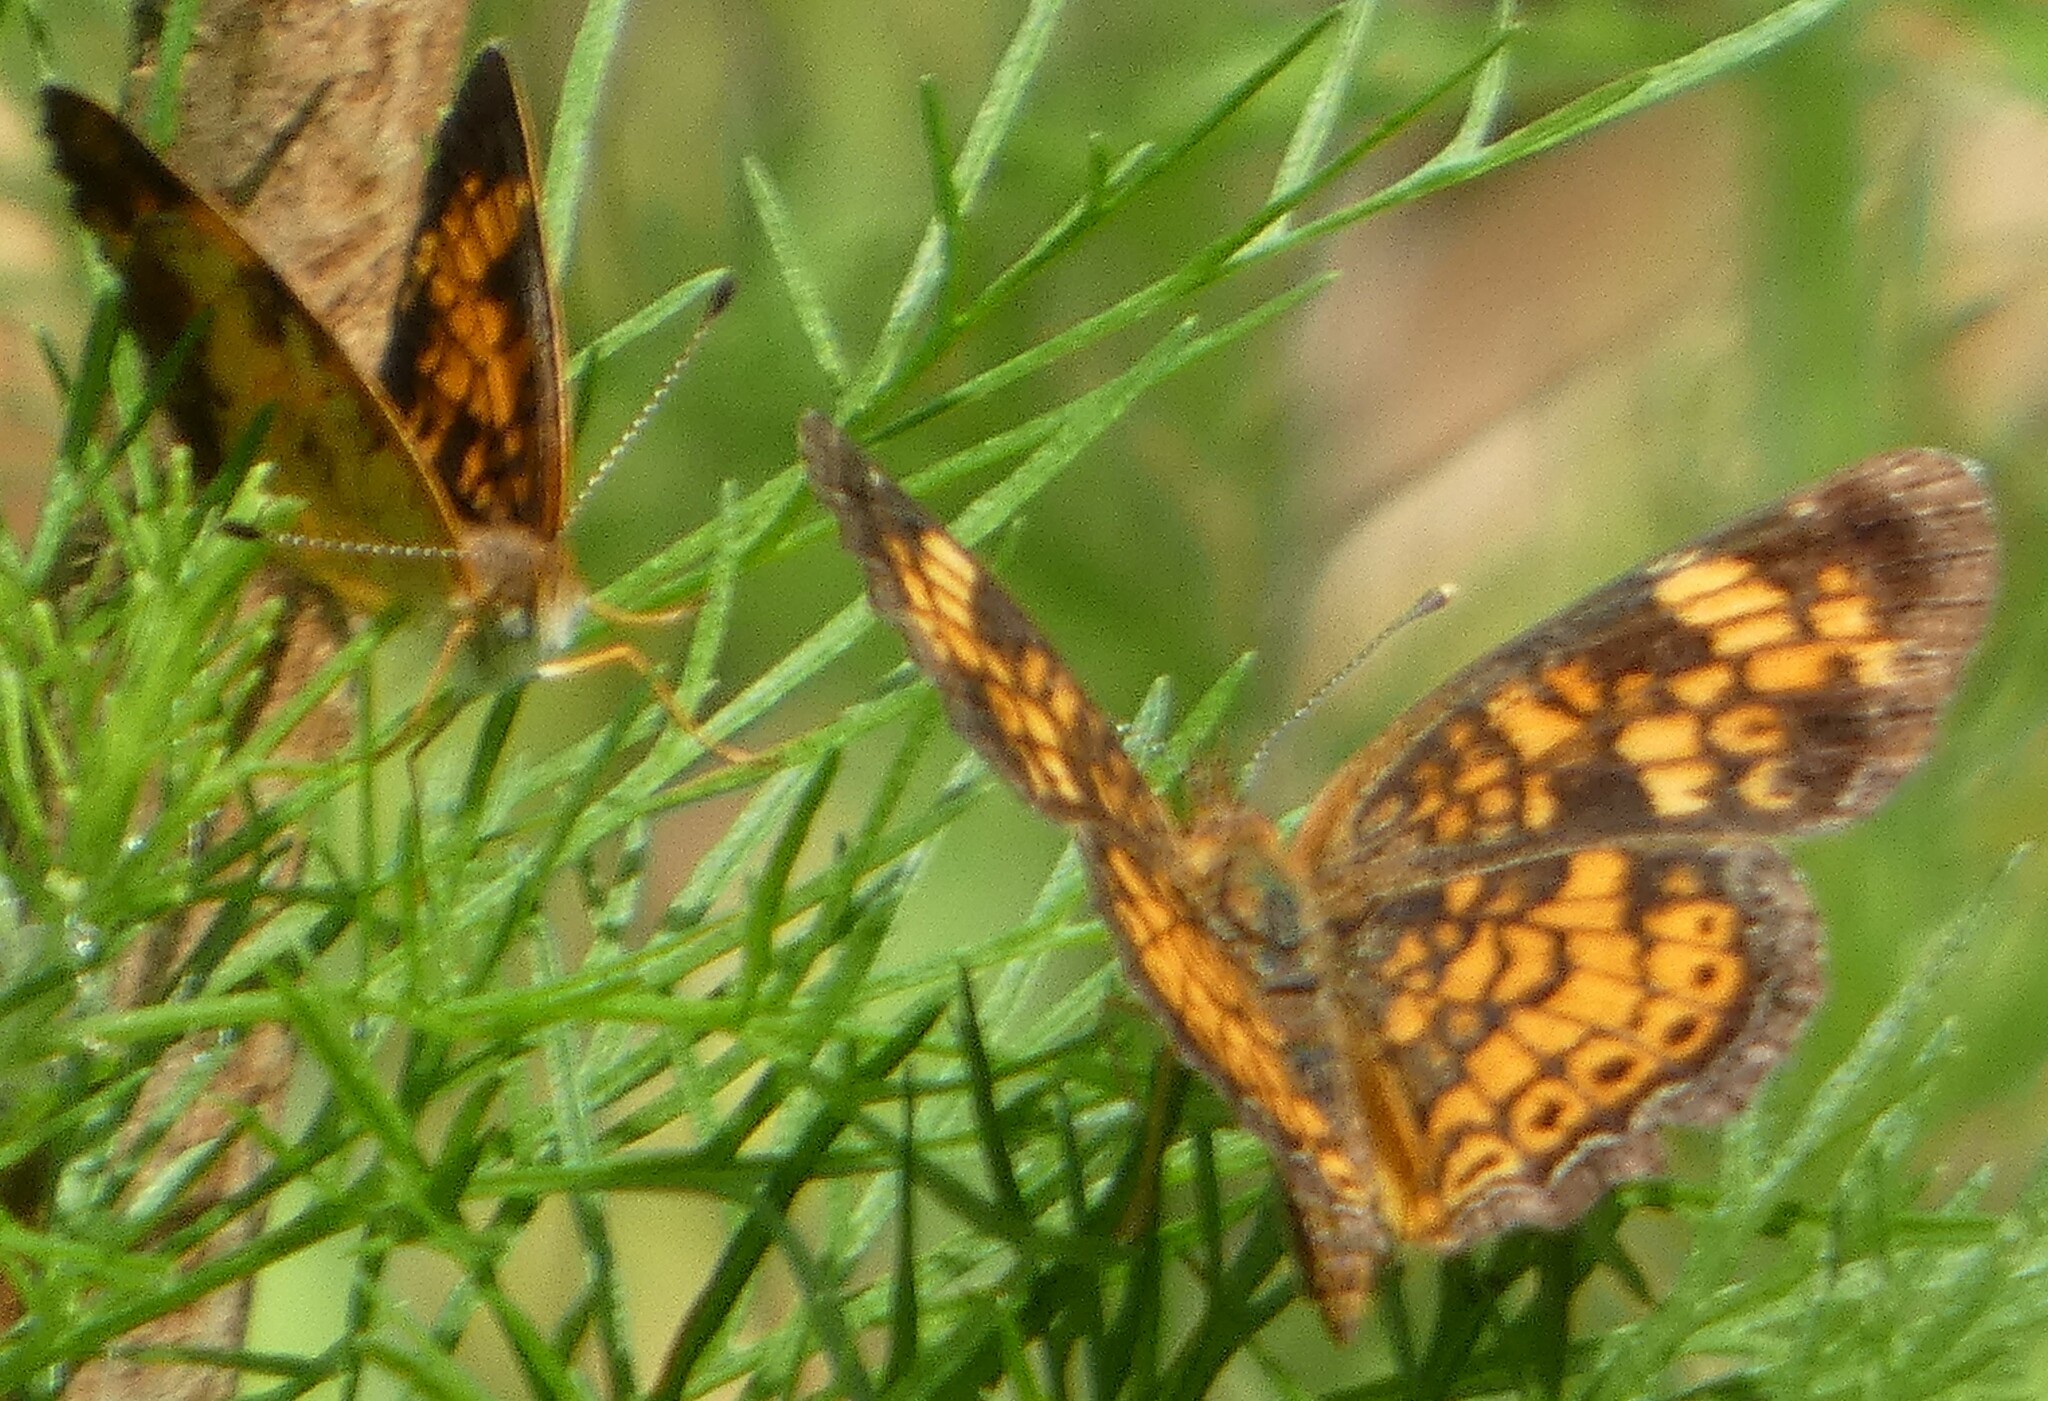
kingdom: Animalia
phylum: Arthropoda
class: Insecta
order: Lepidoptera
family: Nymphalidae
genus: Phyciodes
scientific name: Phyciodes tharos
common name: Pearl crescent
